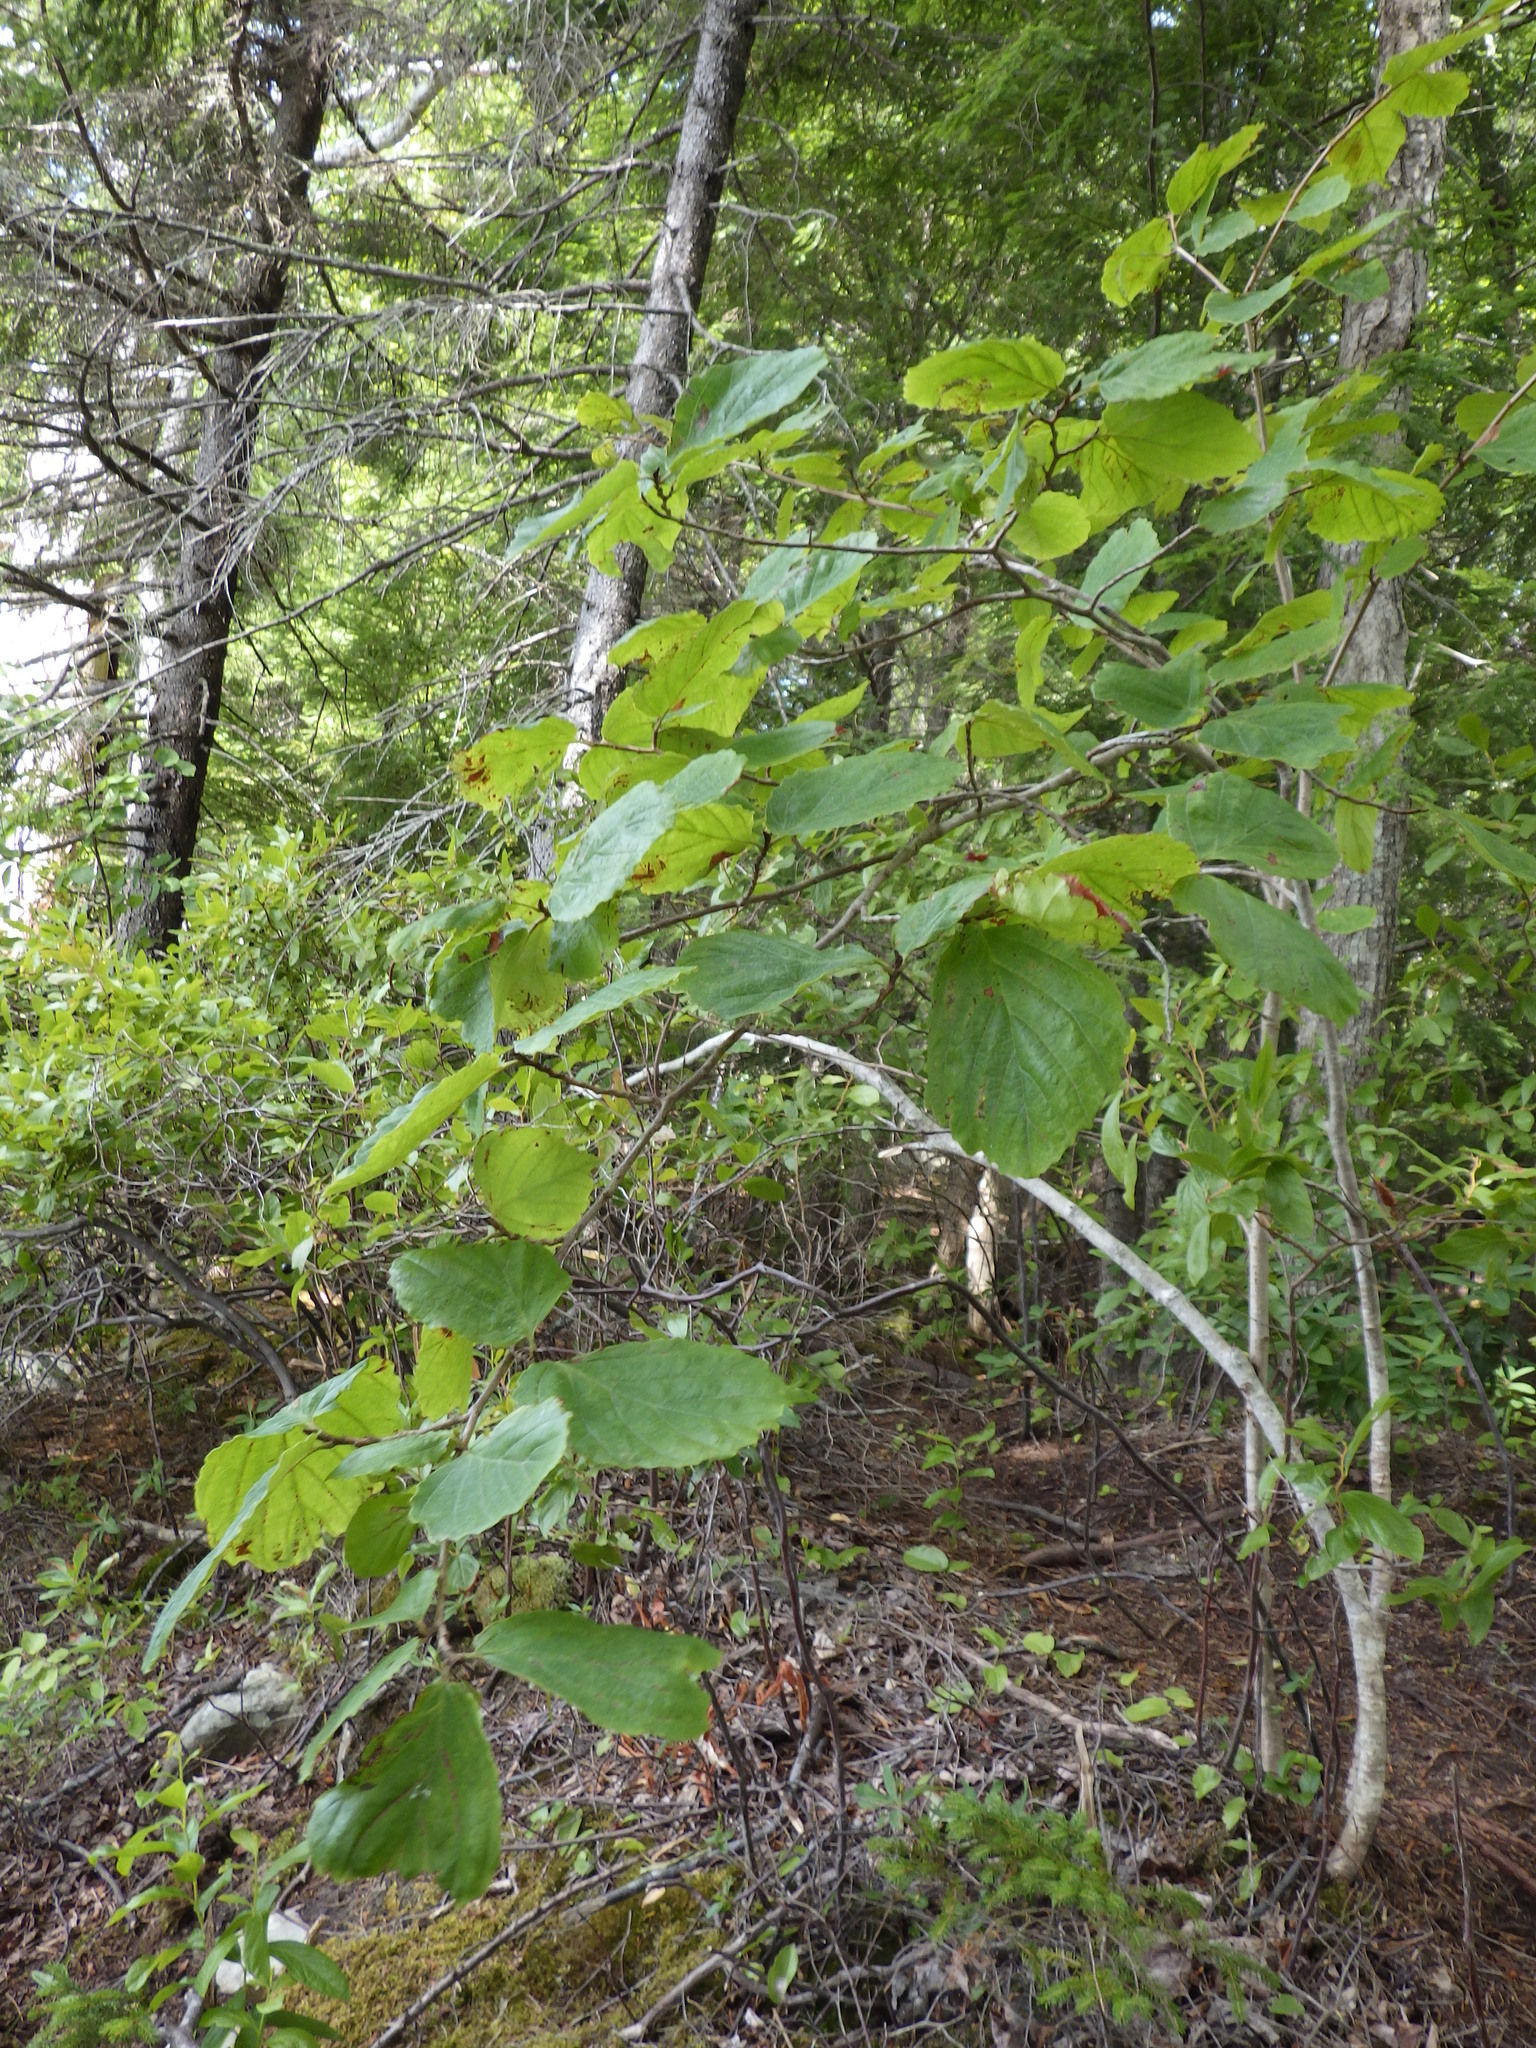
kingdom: Plantae
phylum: Tracheophyta
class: Magnoliopsida
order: Saxifragales
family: Hamamelidaceae
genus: Hamamelis
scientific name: Hamamelis virginiana
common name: Witch-hazel
